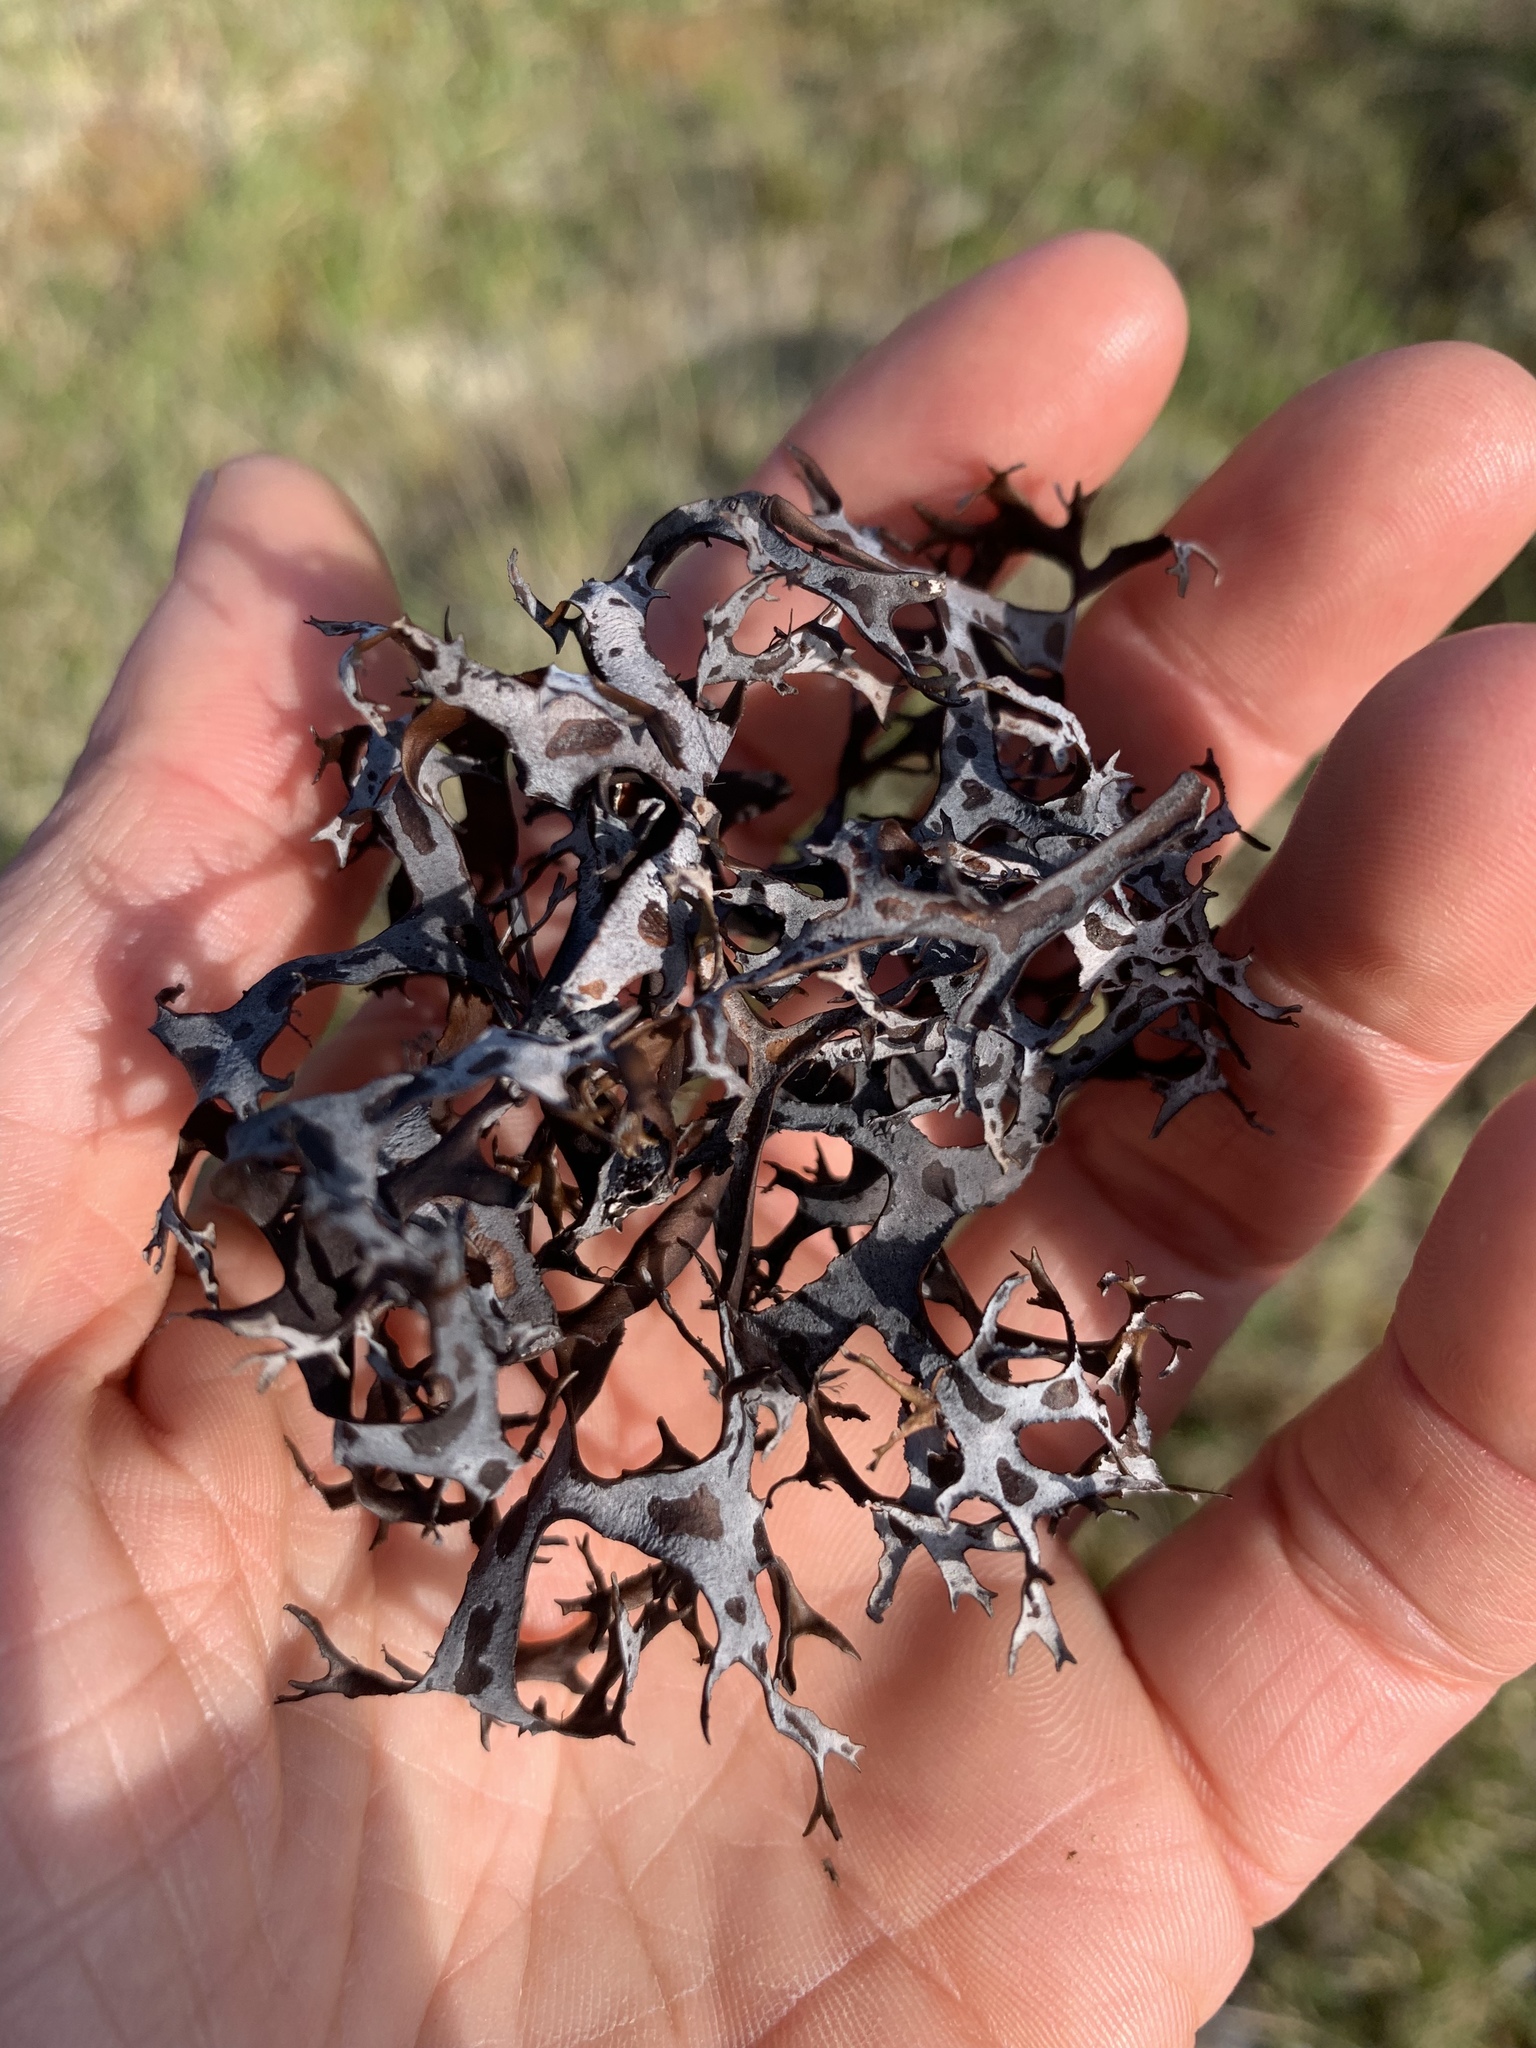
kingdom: Fungi
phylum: Ascomycota
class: Lecanoromycetes
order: Lecanorales
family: Parmeliaceae
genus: Nephromopsis
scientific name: Nephromopsis richardsonii
